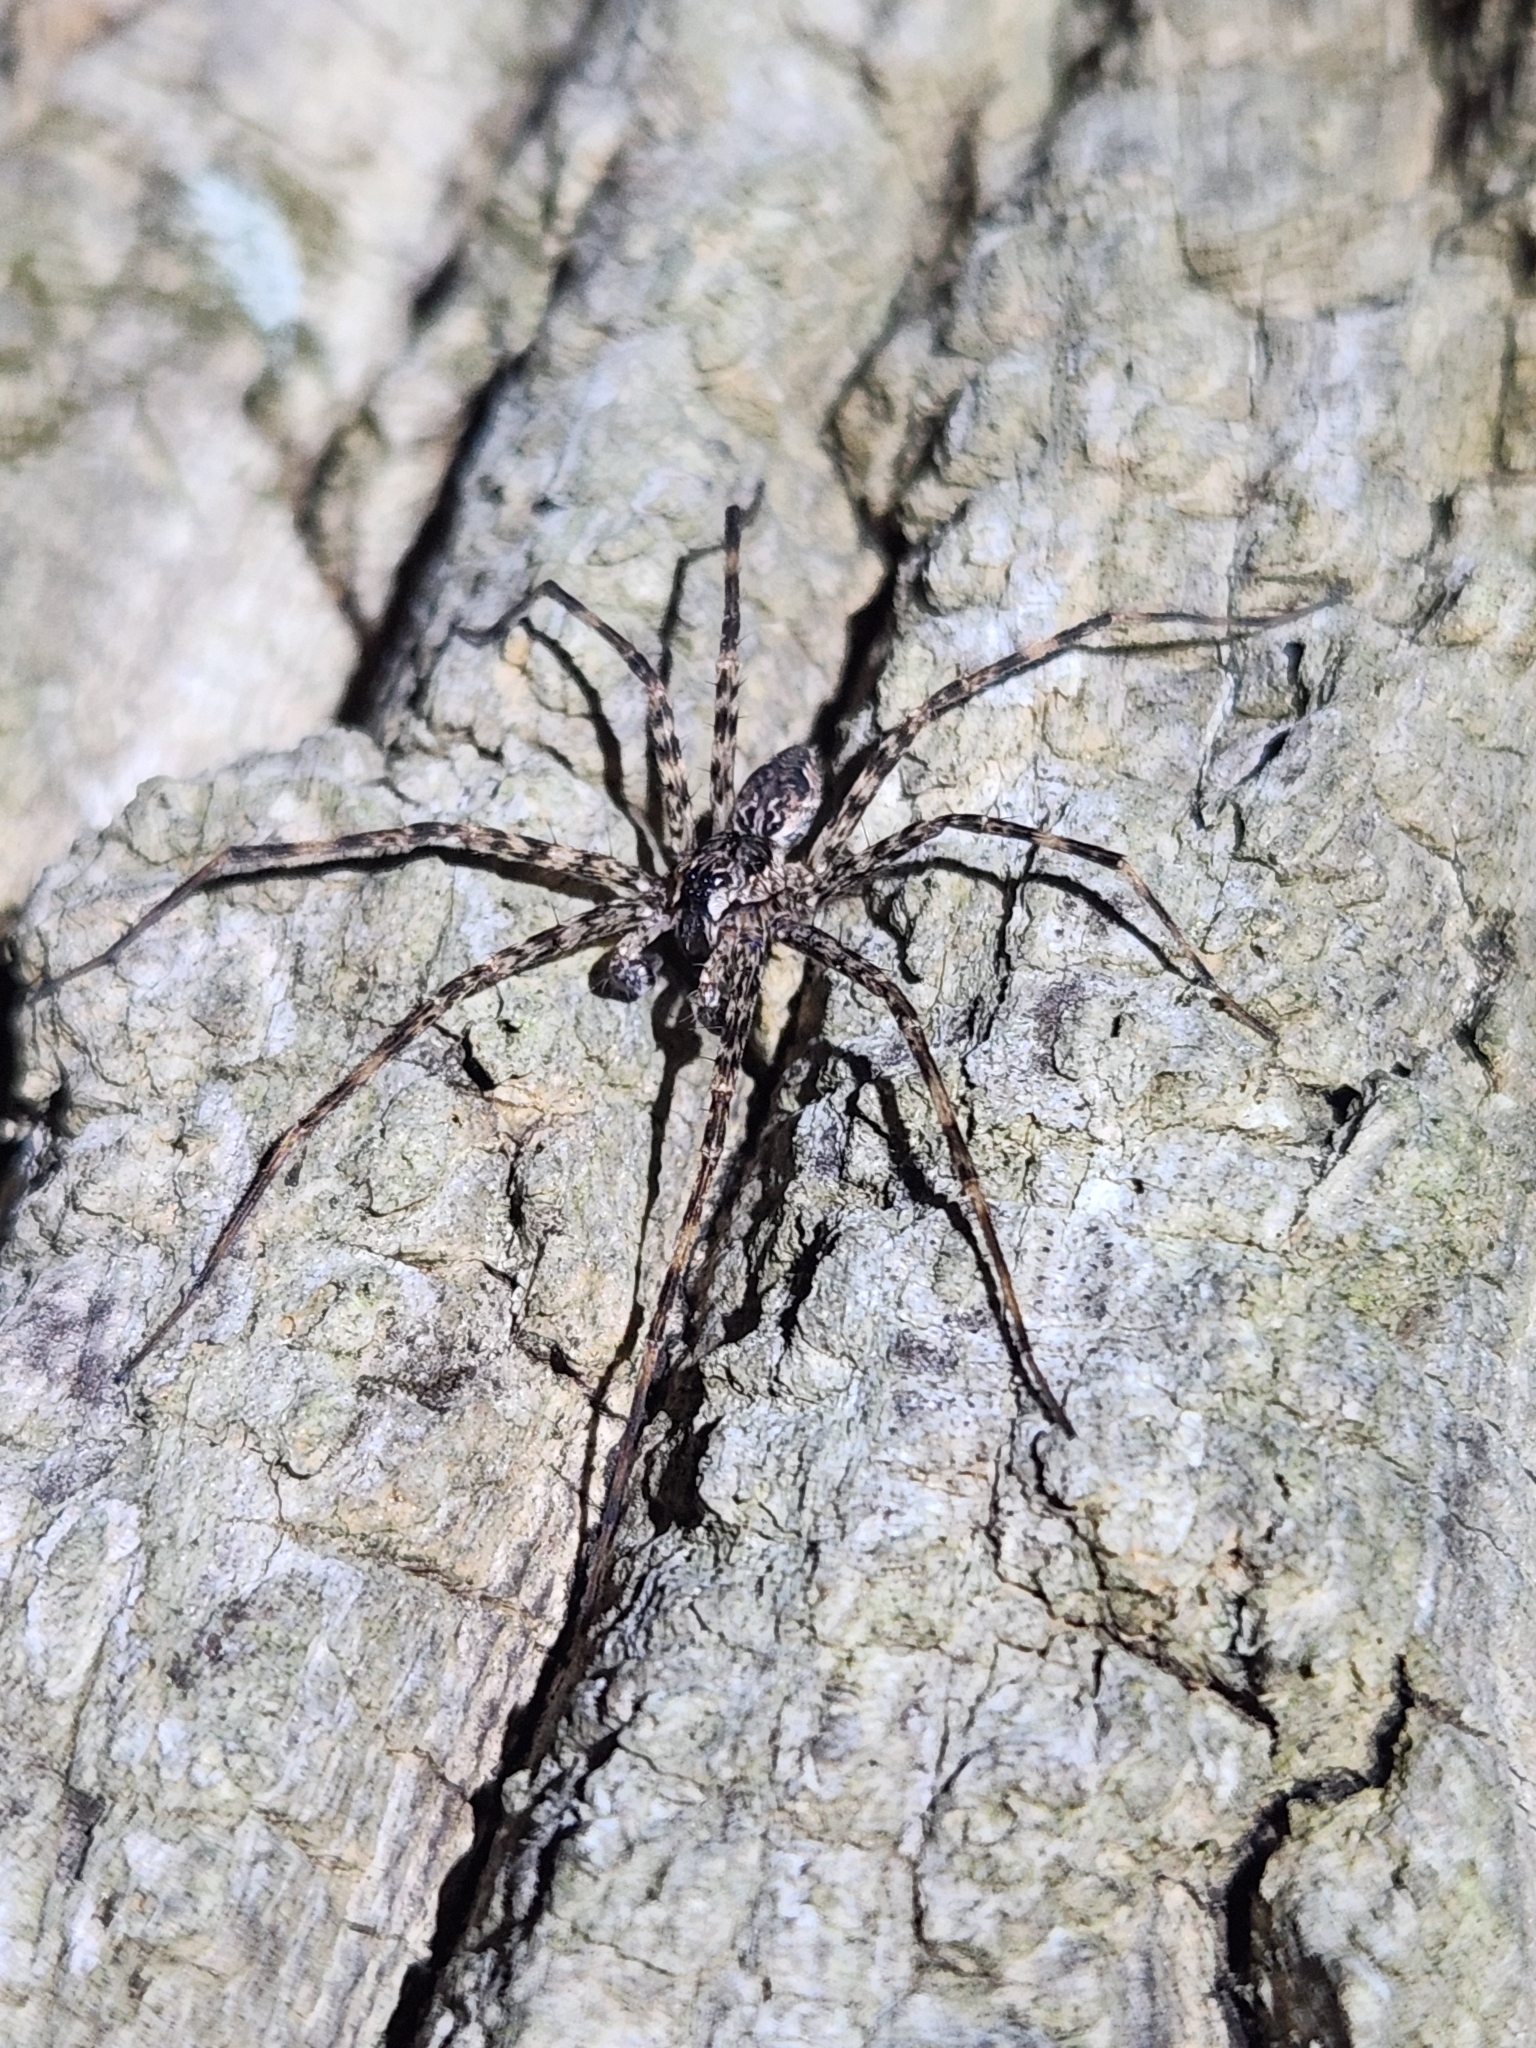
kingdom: Animalia
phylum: Arthropoda
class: Arachnida
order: Araneae
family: Pisauridae
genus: Dolomedes
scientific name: Dolomedes tenebrosus
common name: Dark fishing spider
